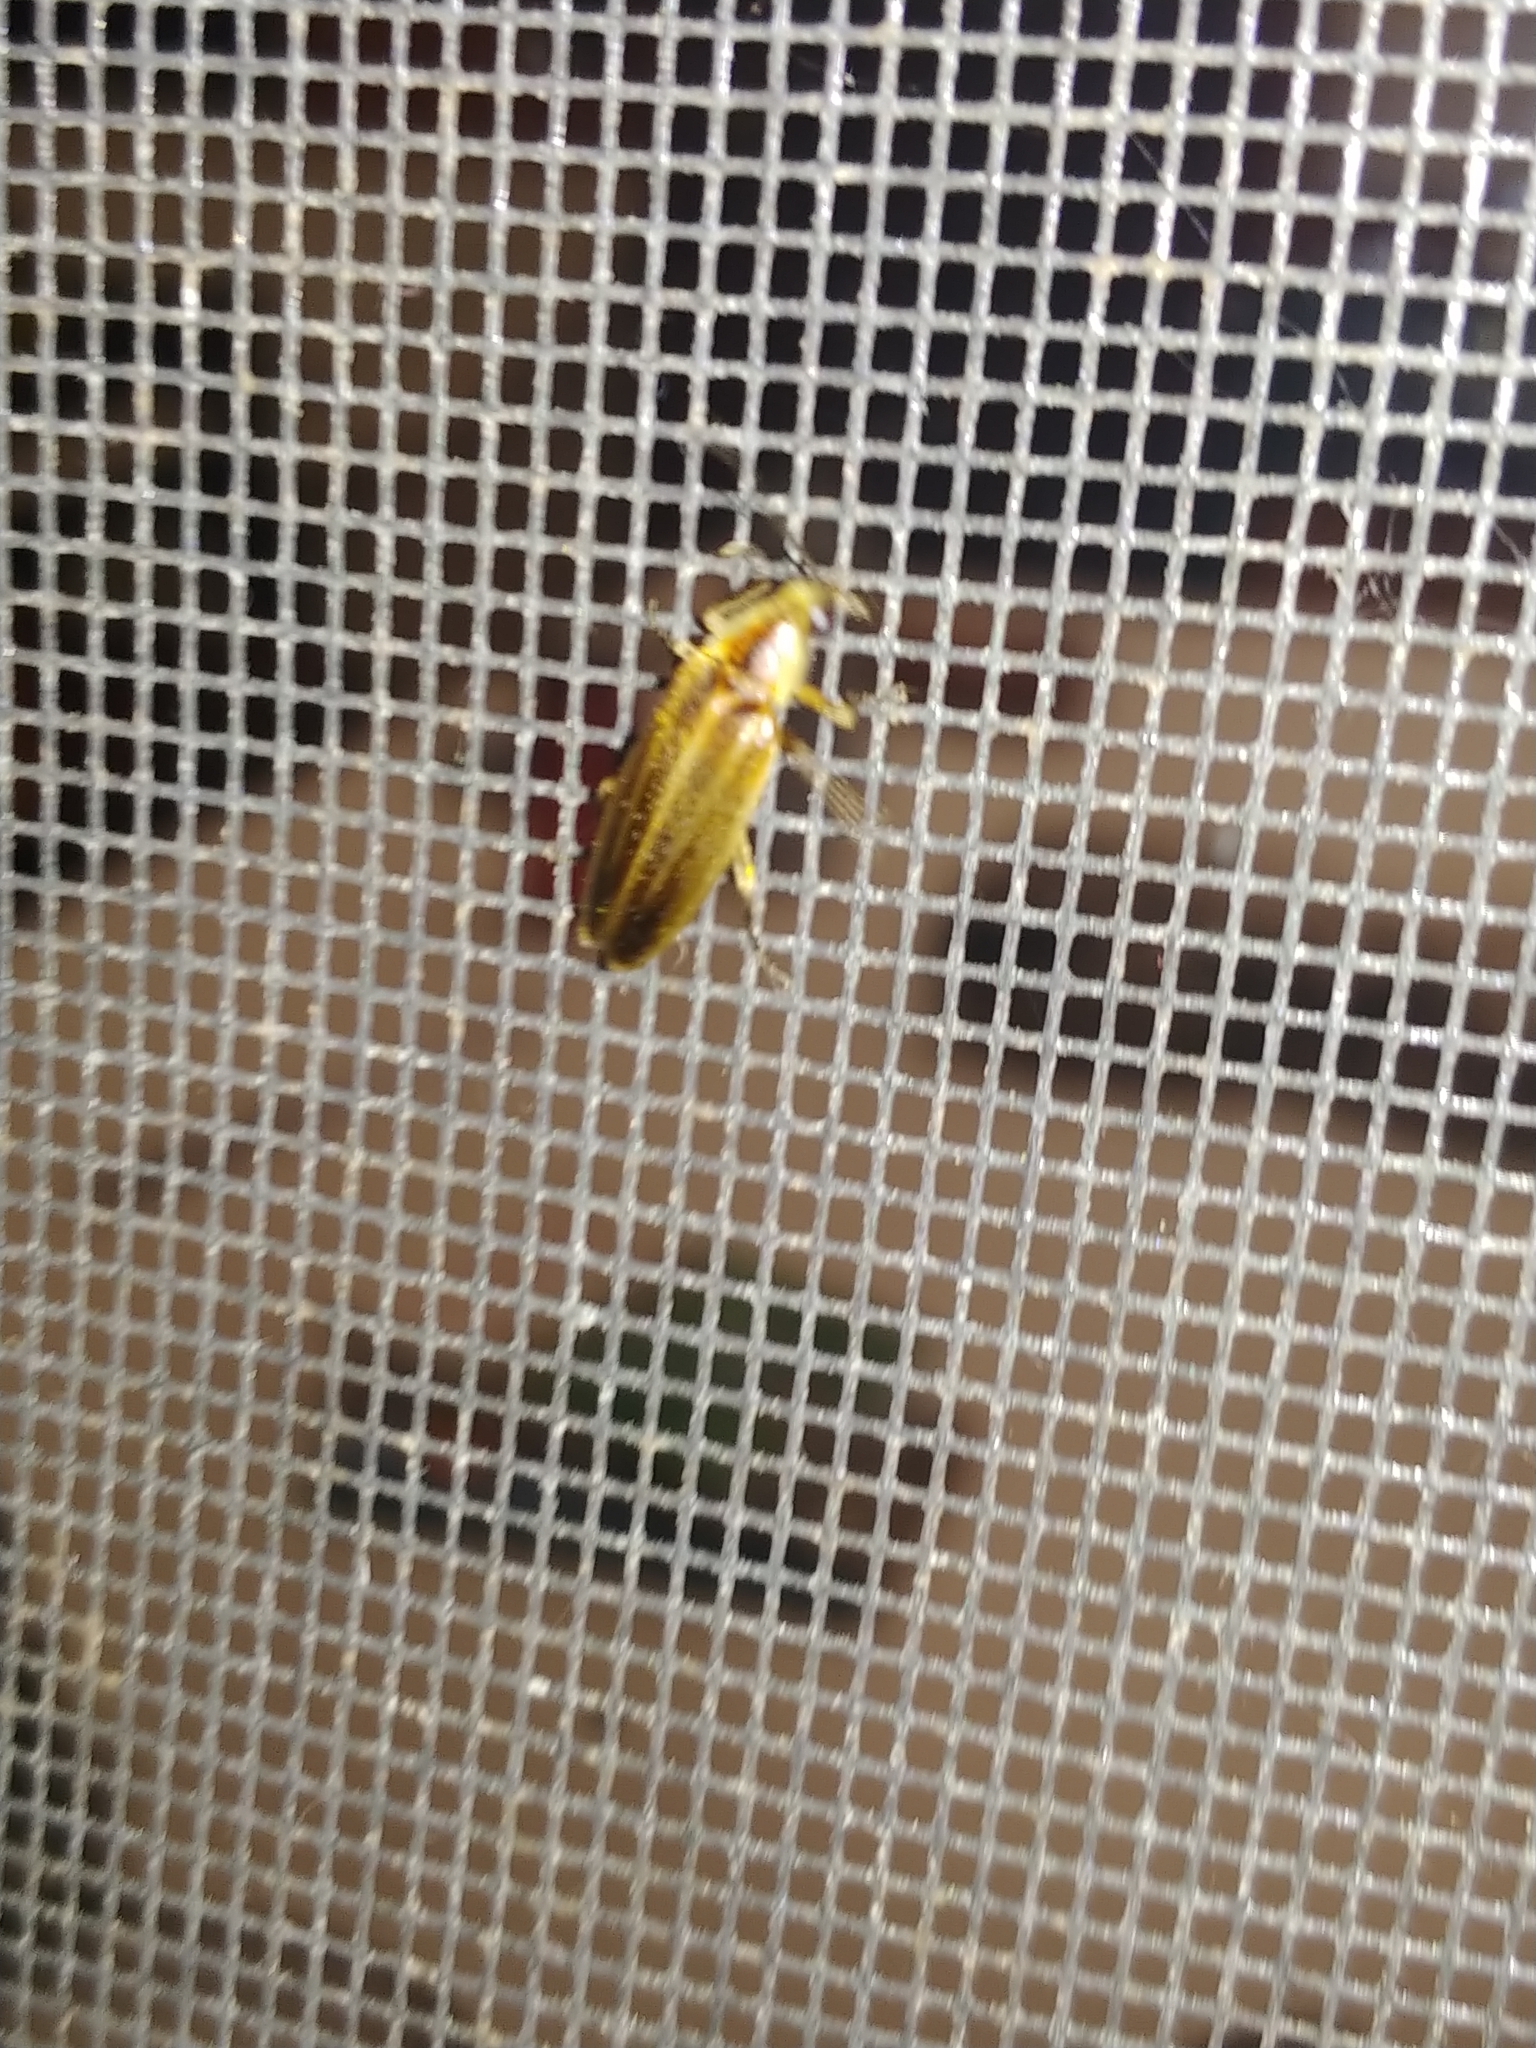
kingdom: Animalia
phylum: Arthropoda
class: Insecta
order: Coleoptera
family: Lampyridae
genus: Photuris
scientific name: Photuris
